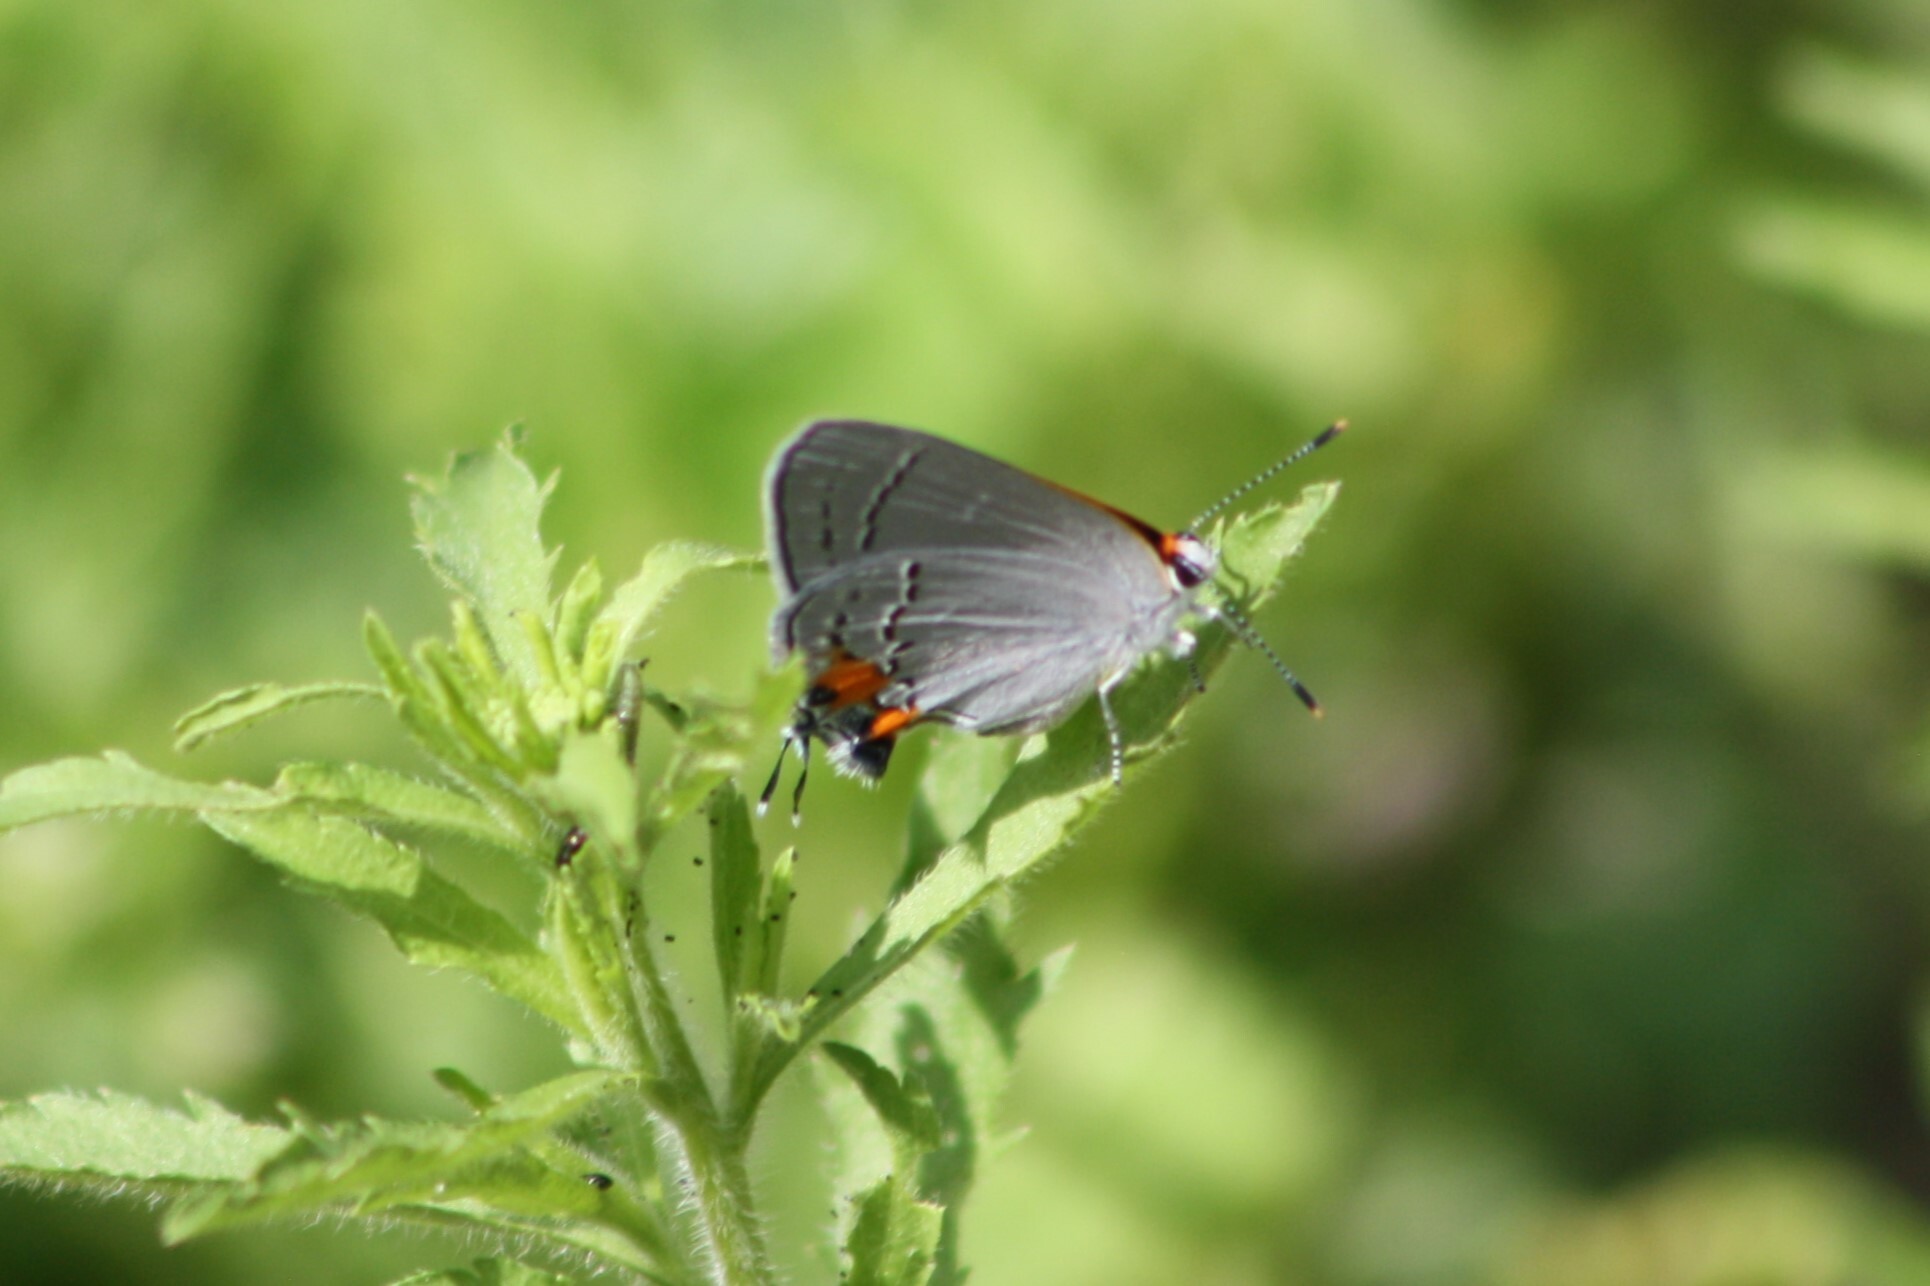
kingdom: Animalia
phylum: Arthropoda
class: Insecta
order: Lepidoptera
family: Lycaenidae
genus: Strymon
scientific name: Strymon melinus
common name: Gray hairstreak
